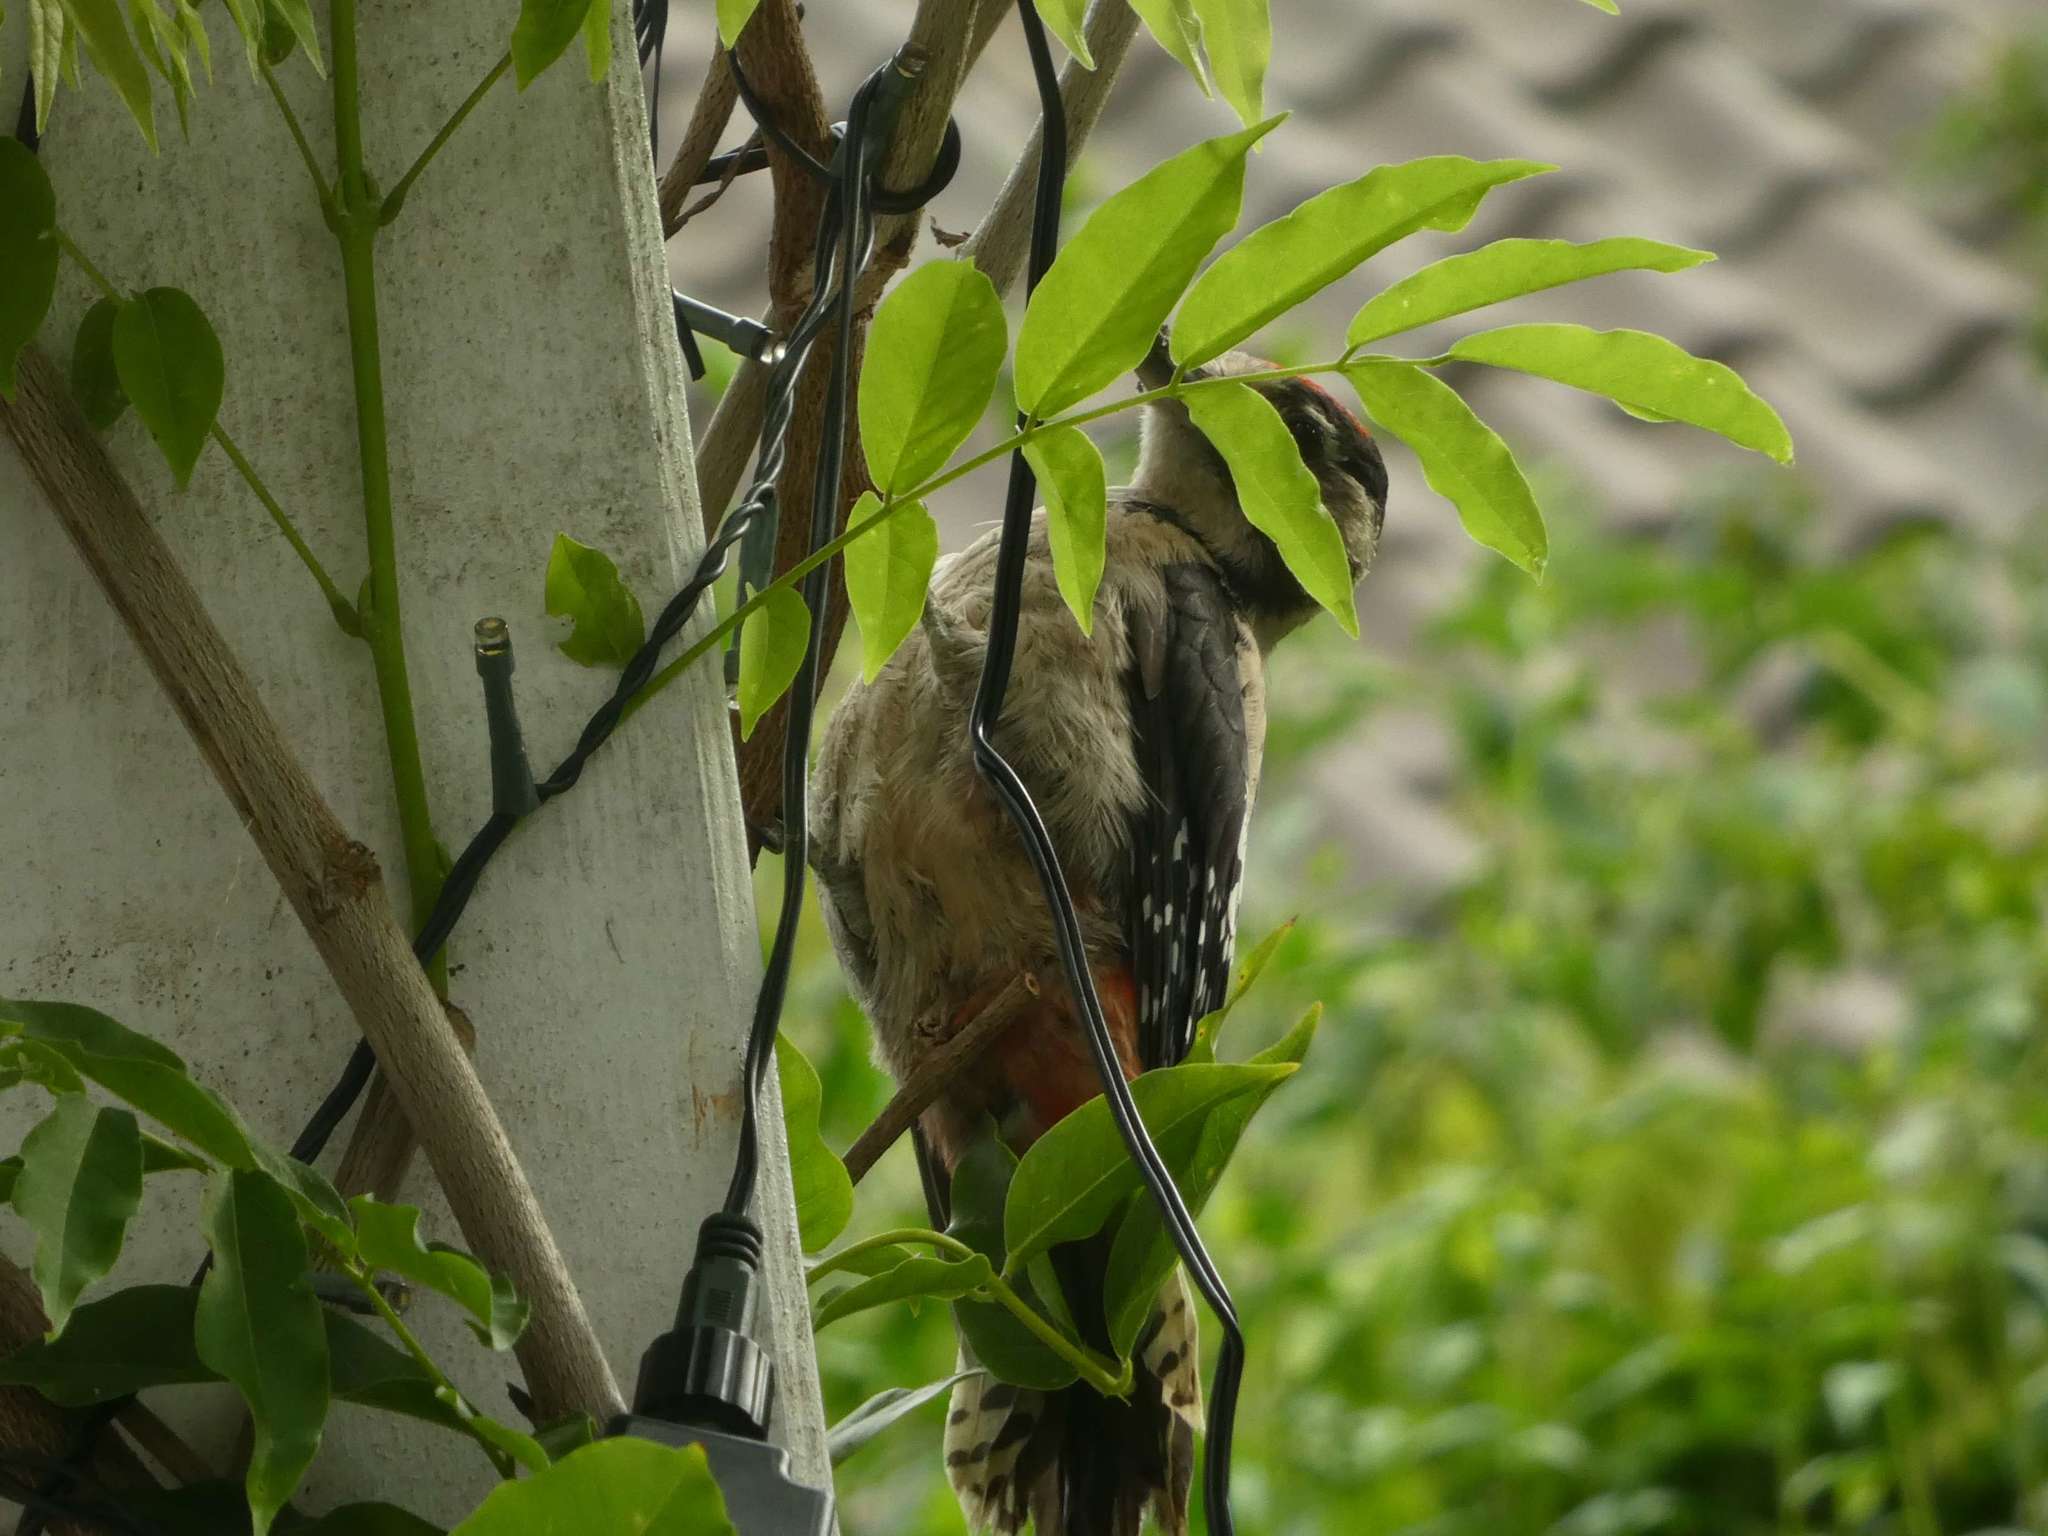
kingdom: Animalia
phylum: Chordata
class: Aves
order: Piciformes
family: Picidae
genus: Dendrocopos
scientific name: Dendrocopos major
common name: Great spotted woodpecker
